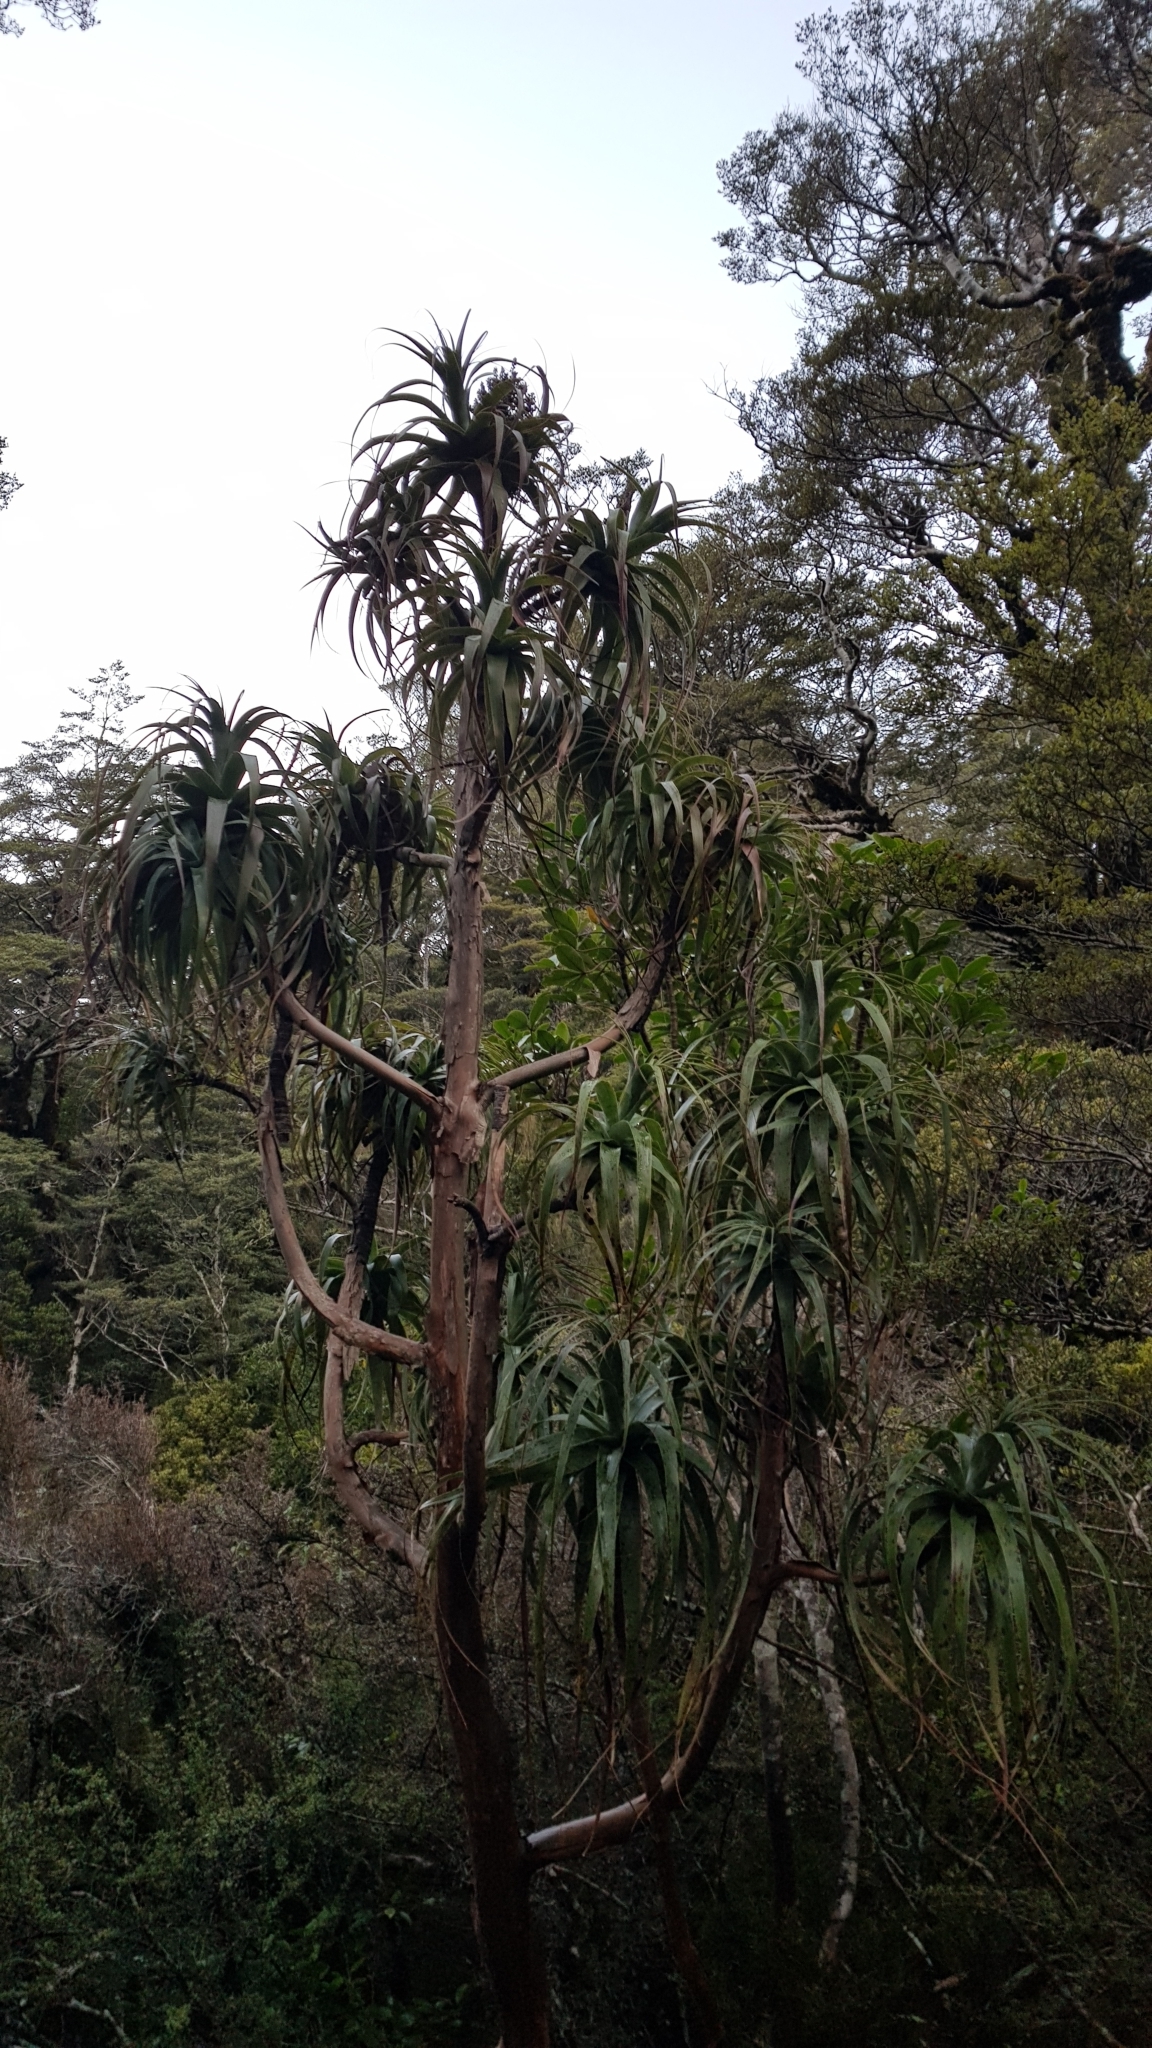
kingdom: Plantae
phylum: Tracheophyta
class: Magnoliopsida
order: Ericales
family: Ericaceae
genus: Dracophyllum
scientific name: Dracophyllum traversii
